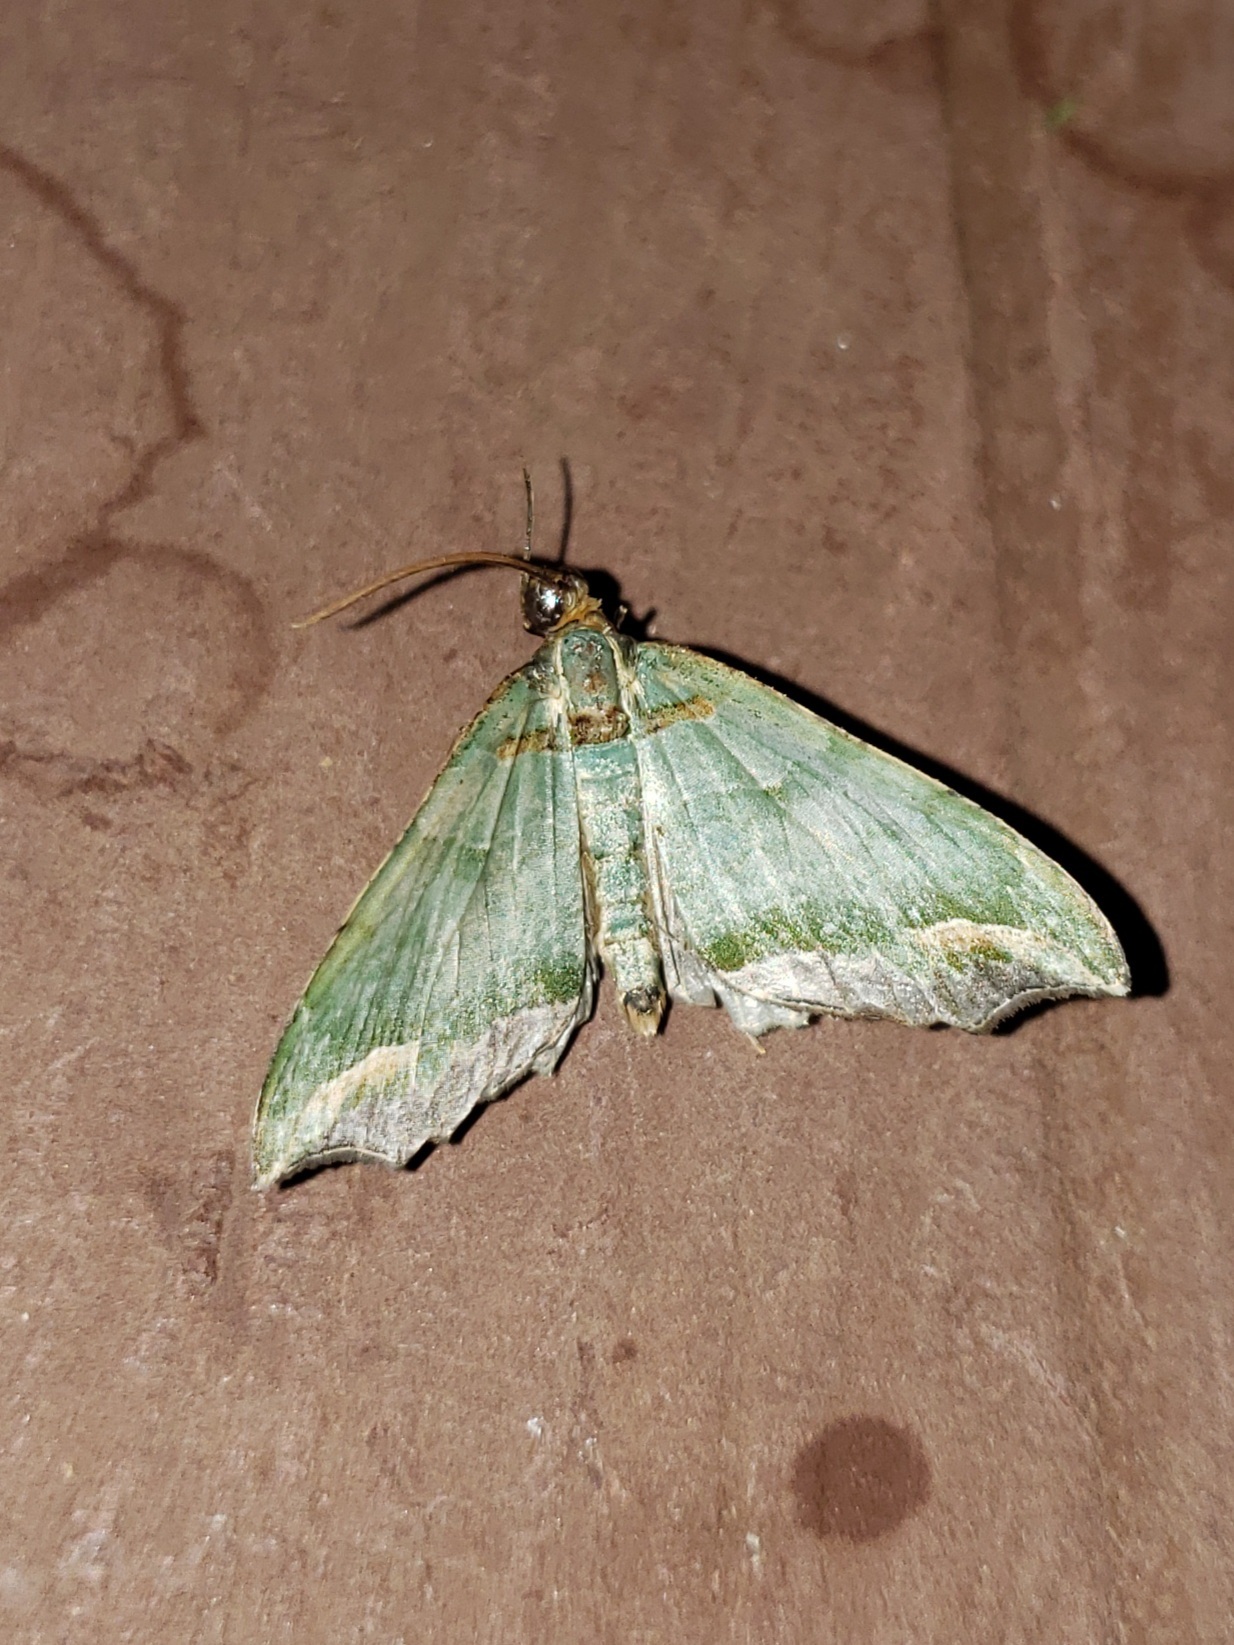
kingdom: Animalia
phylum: Arthropoda
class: Insecta
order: Lepidoptera
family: Geometridae
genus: Oligopleura
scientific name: Oligopleura malachitaria
